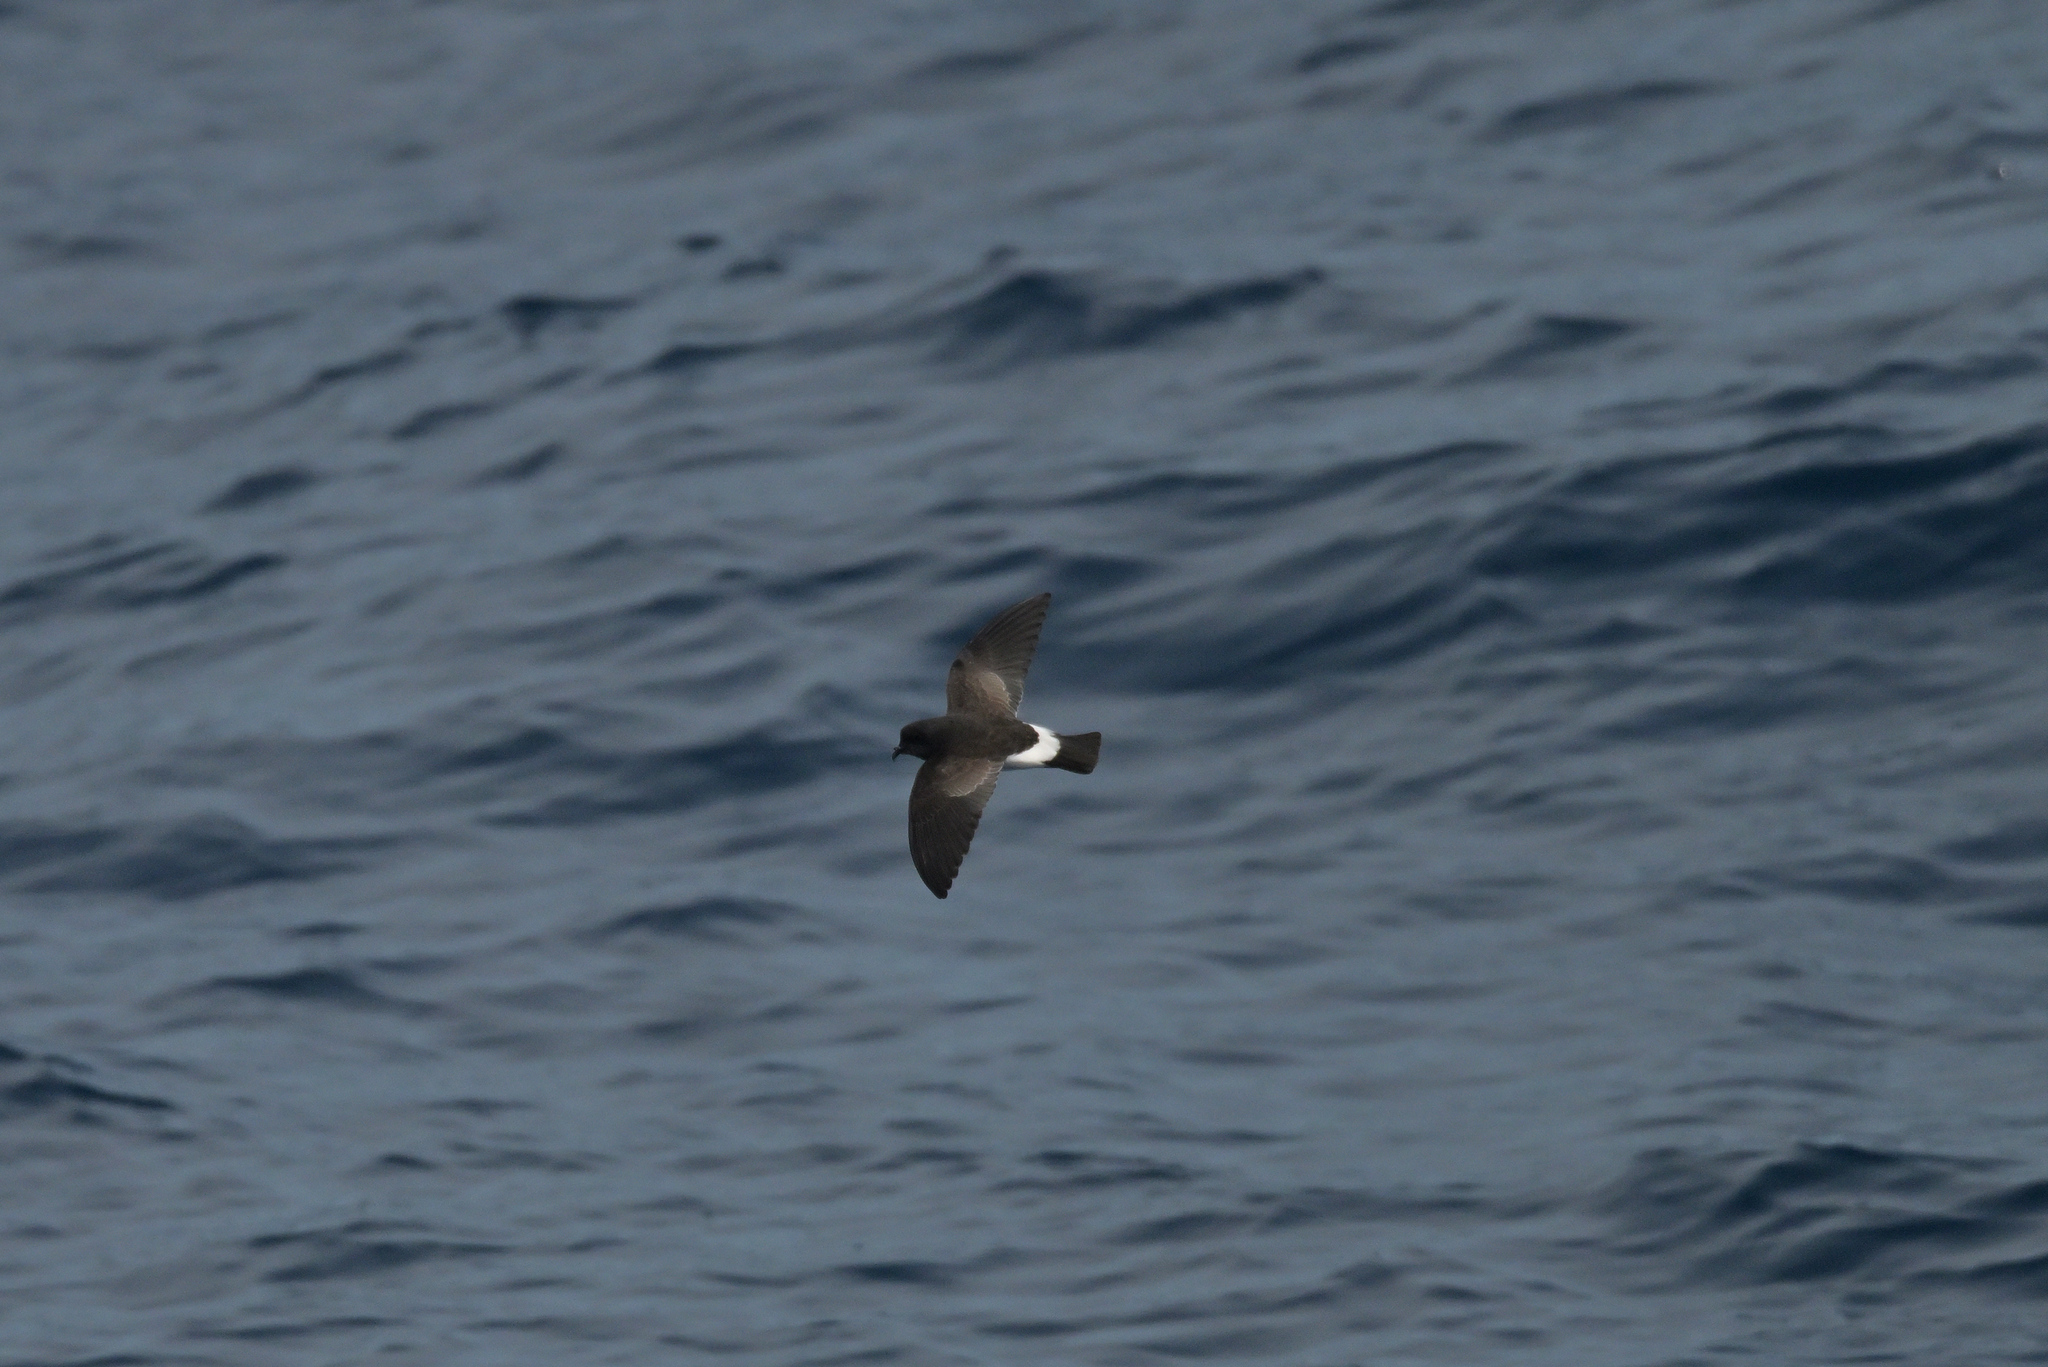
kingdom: Animalia
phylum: Chordata
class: Aves
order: Procellariiformes
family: Hydrobatidae
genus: Fregetta
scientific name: Fregetta tropica
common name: Black-bellied storm-petrel
